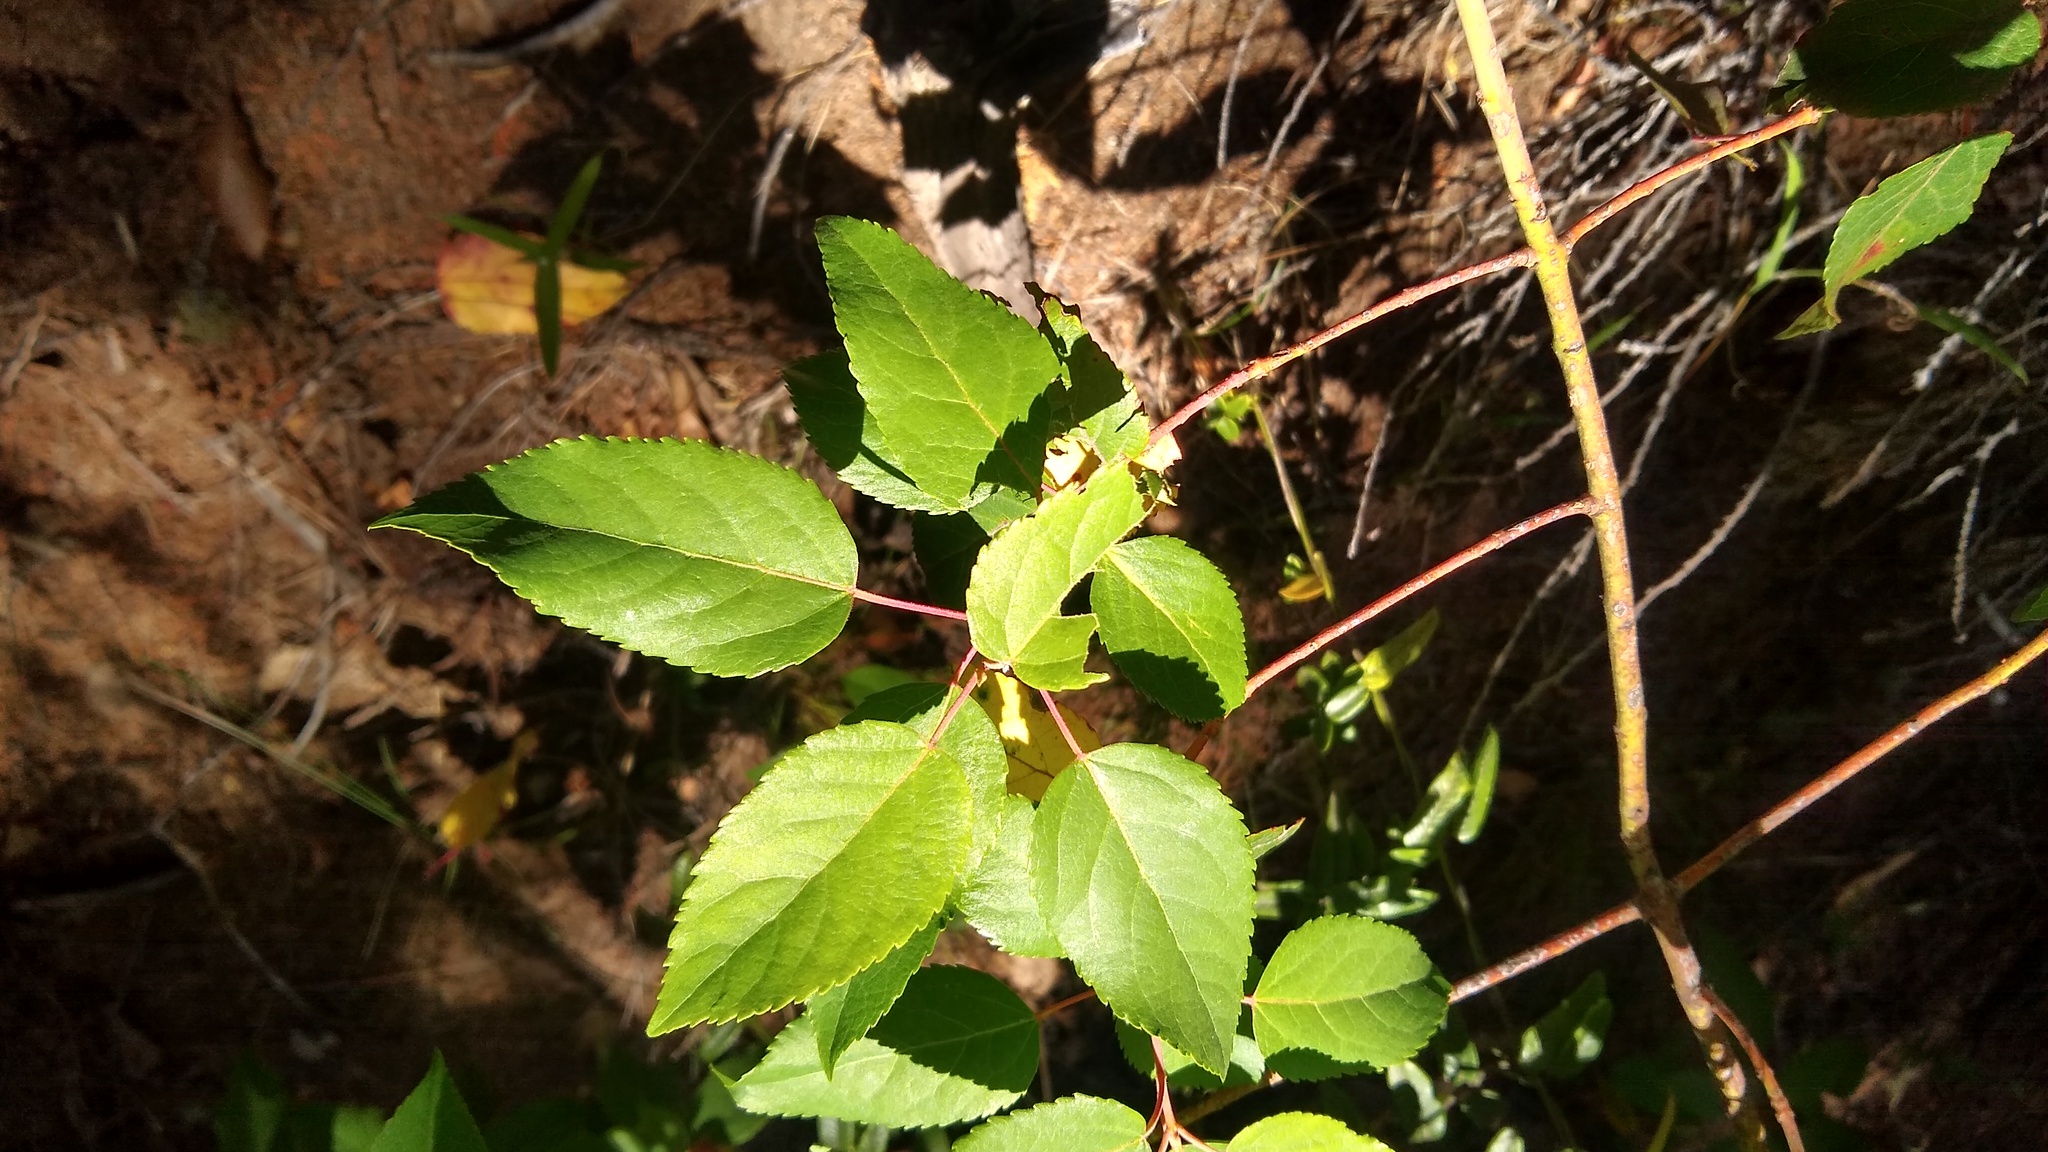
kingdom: Plantae
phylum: Tracheophyta
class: Magnoliopsida
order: Oxalidales
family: Elaeocarpaceae
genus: Aristotelia
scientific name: Aristotelia chilensis
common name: Maquei
